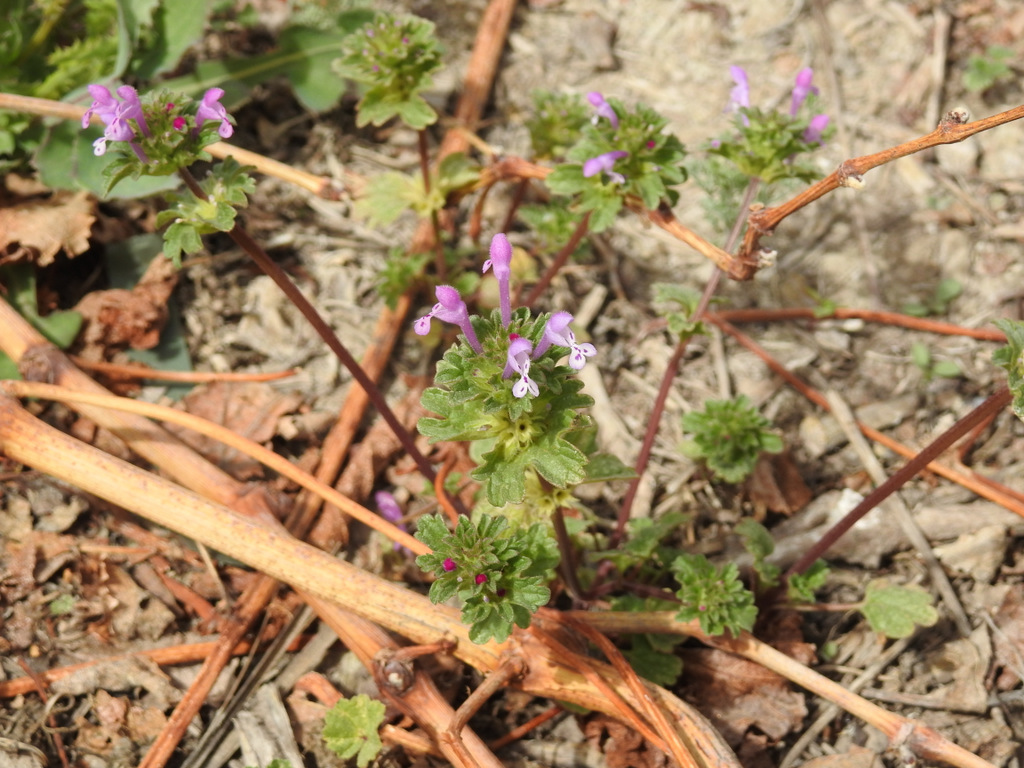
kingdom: Plantae
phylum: Tracheophyta
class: Magnoliopsida
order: Lamiales
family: Lamiaceae
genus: Lamium
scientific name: Lamium amplexicaule
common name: Henbit dead-nettle
